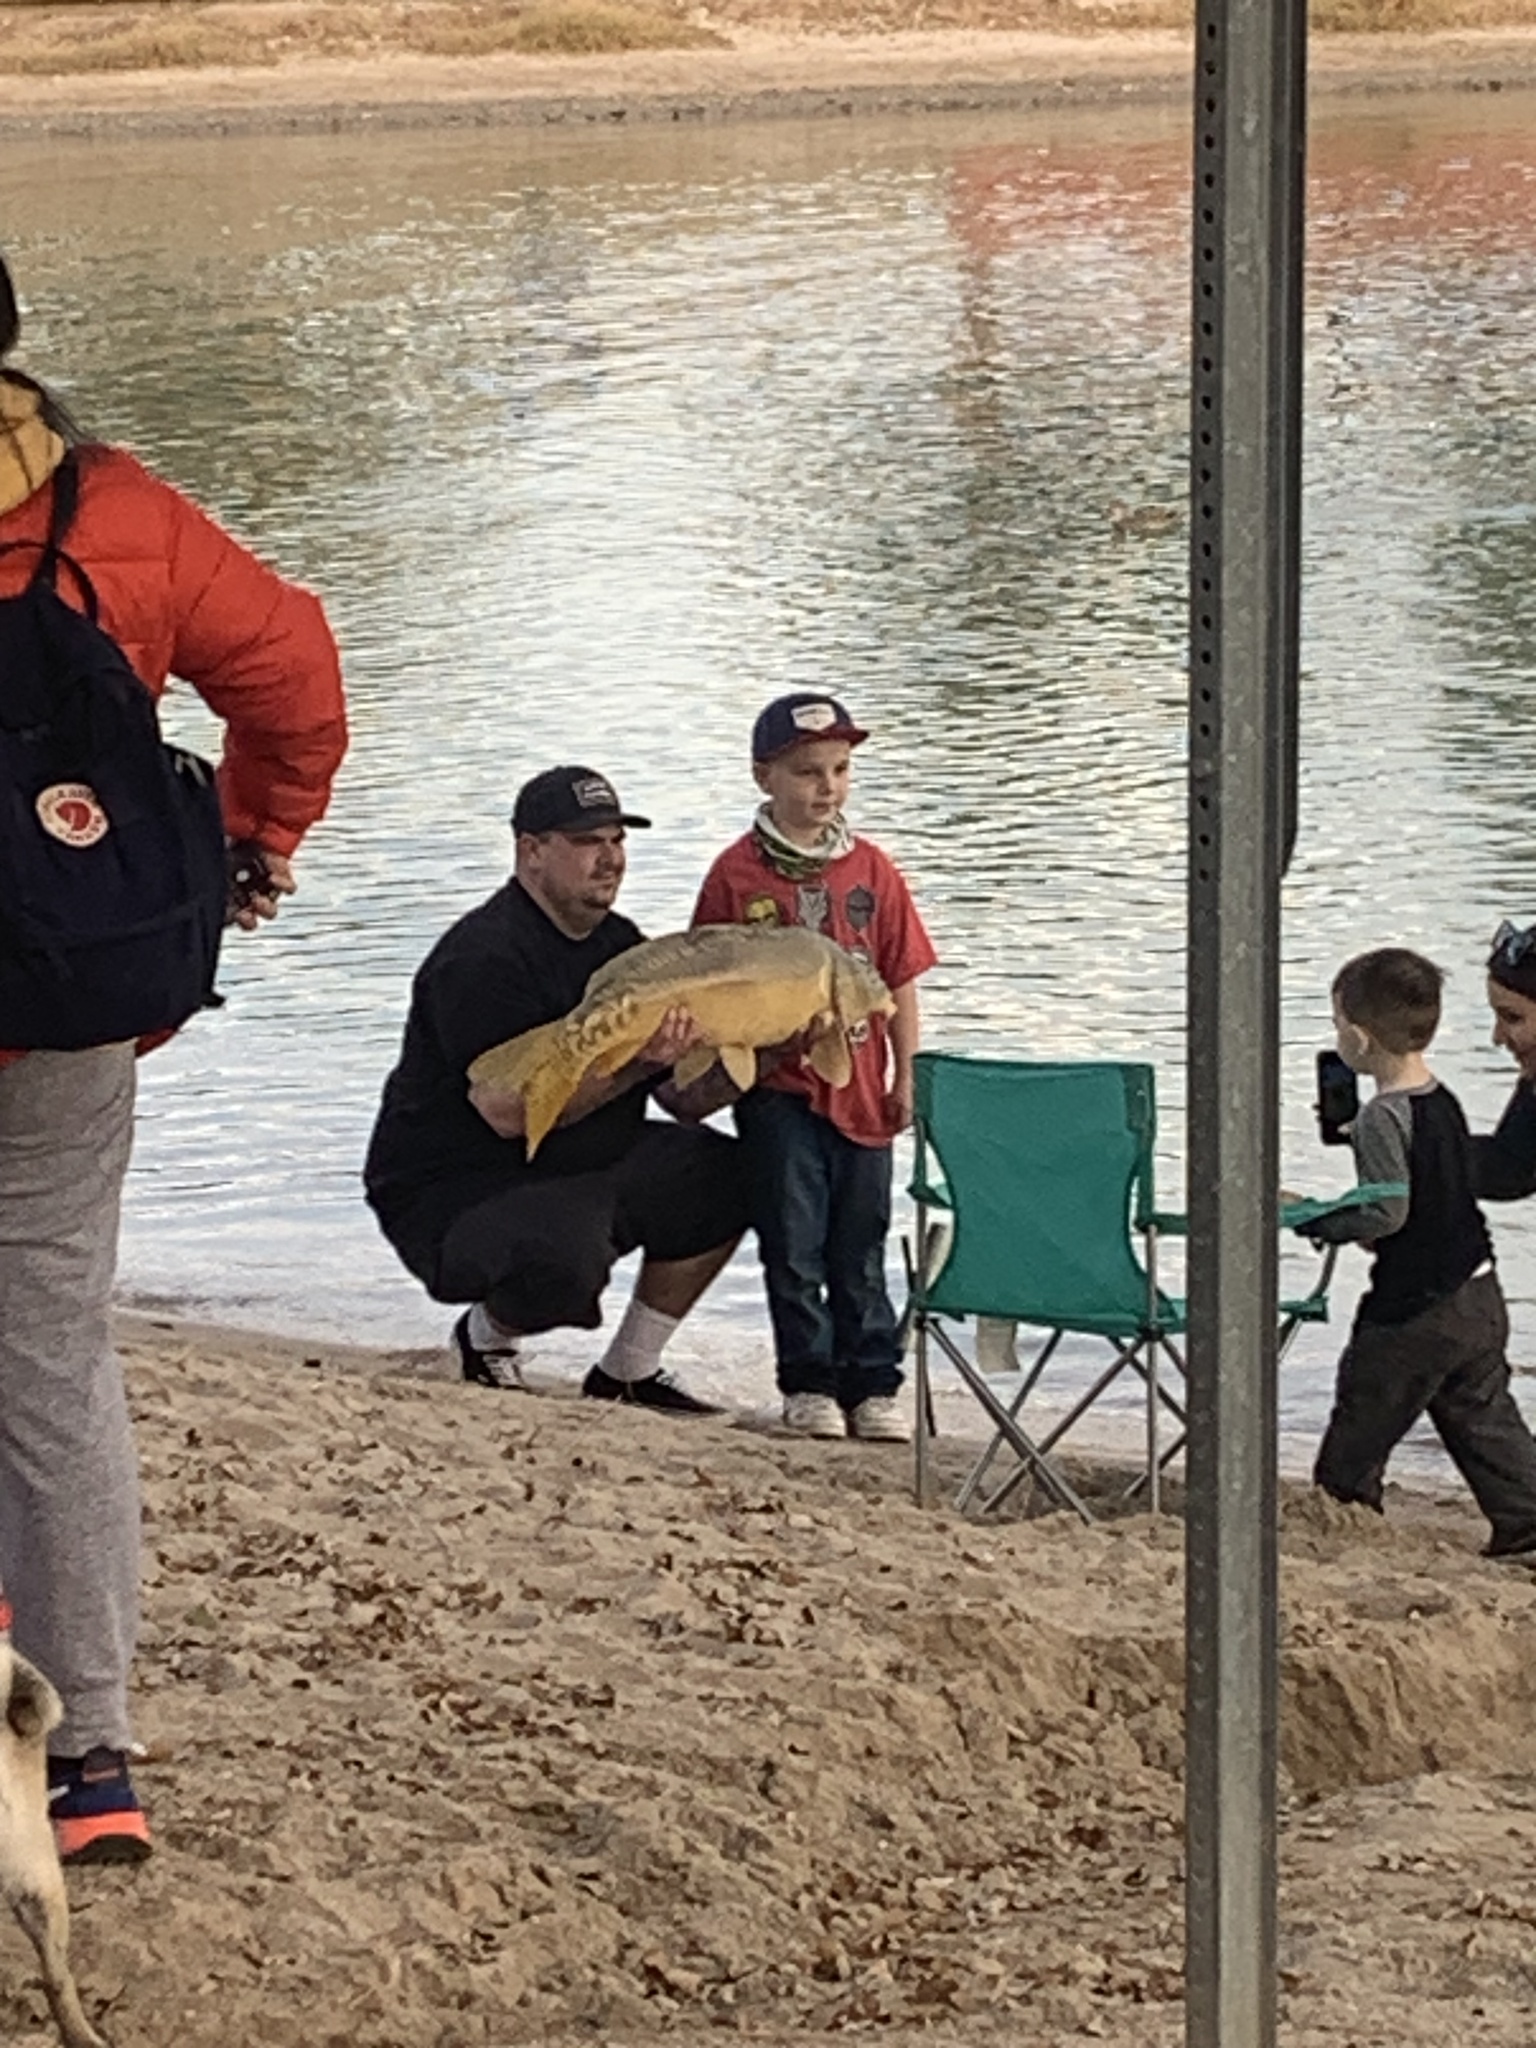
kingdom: Animalia
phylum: Chordata
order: Cypriniformes
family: Cyprinidae
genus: Cyprinus
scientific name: Cyprinus carpio
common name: Common carp
